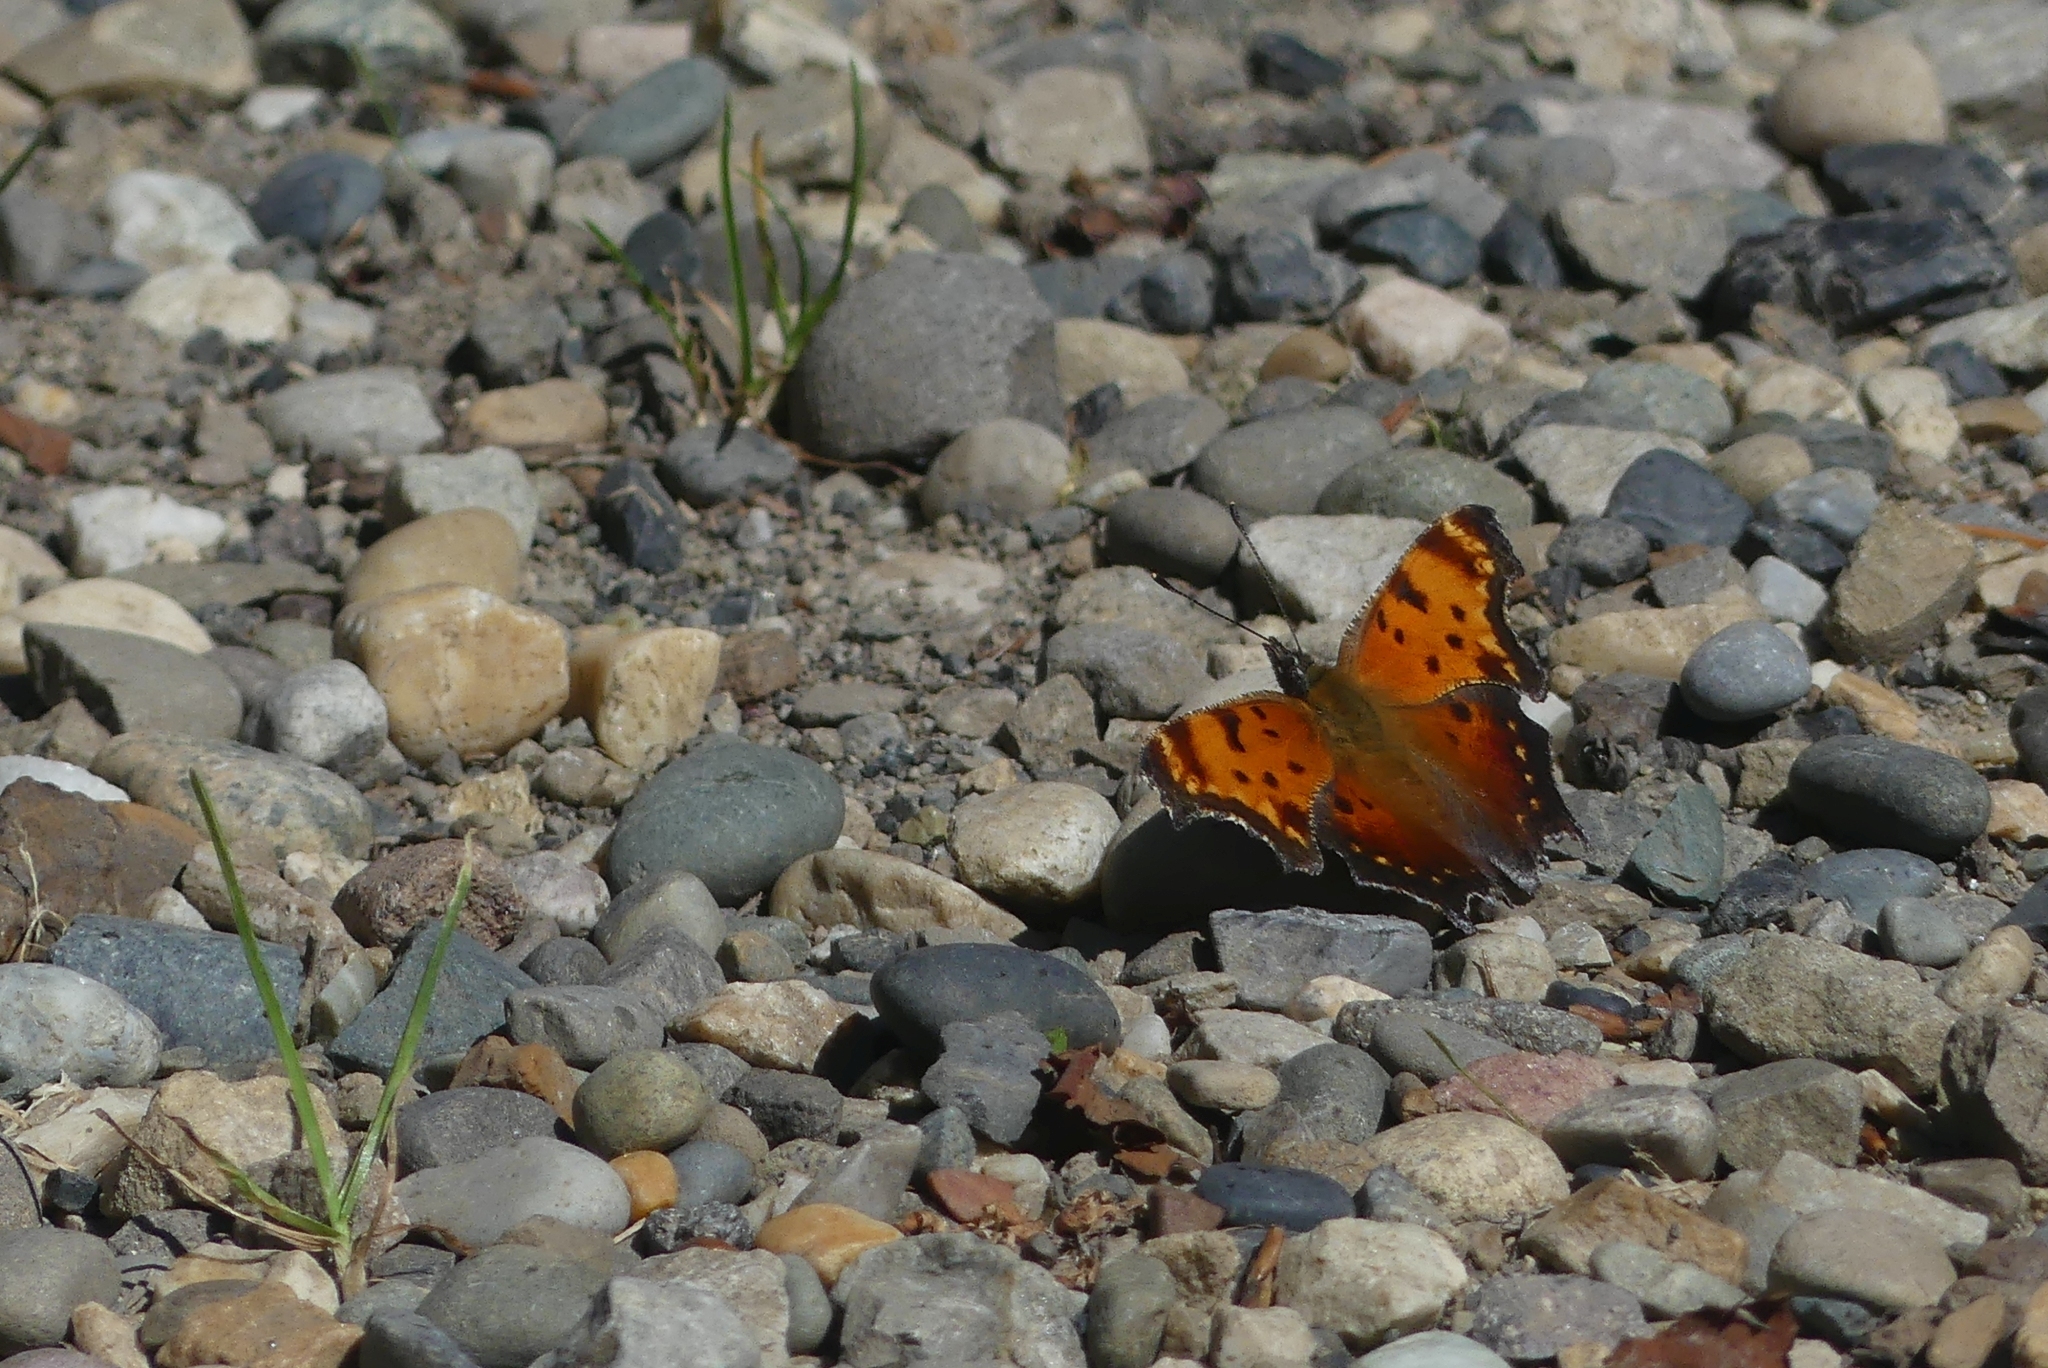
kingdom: Animalia
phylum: Arthropoda
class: Insecta
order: Lepidoptera
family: Nymphalidae
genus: Polygonia
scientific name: Polygonia progne
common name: Gray comma
